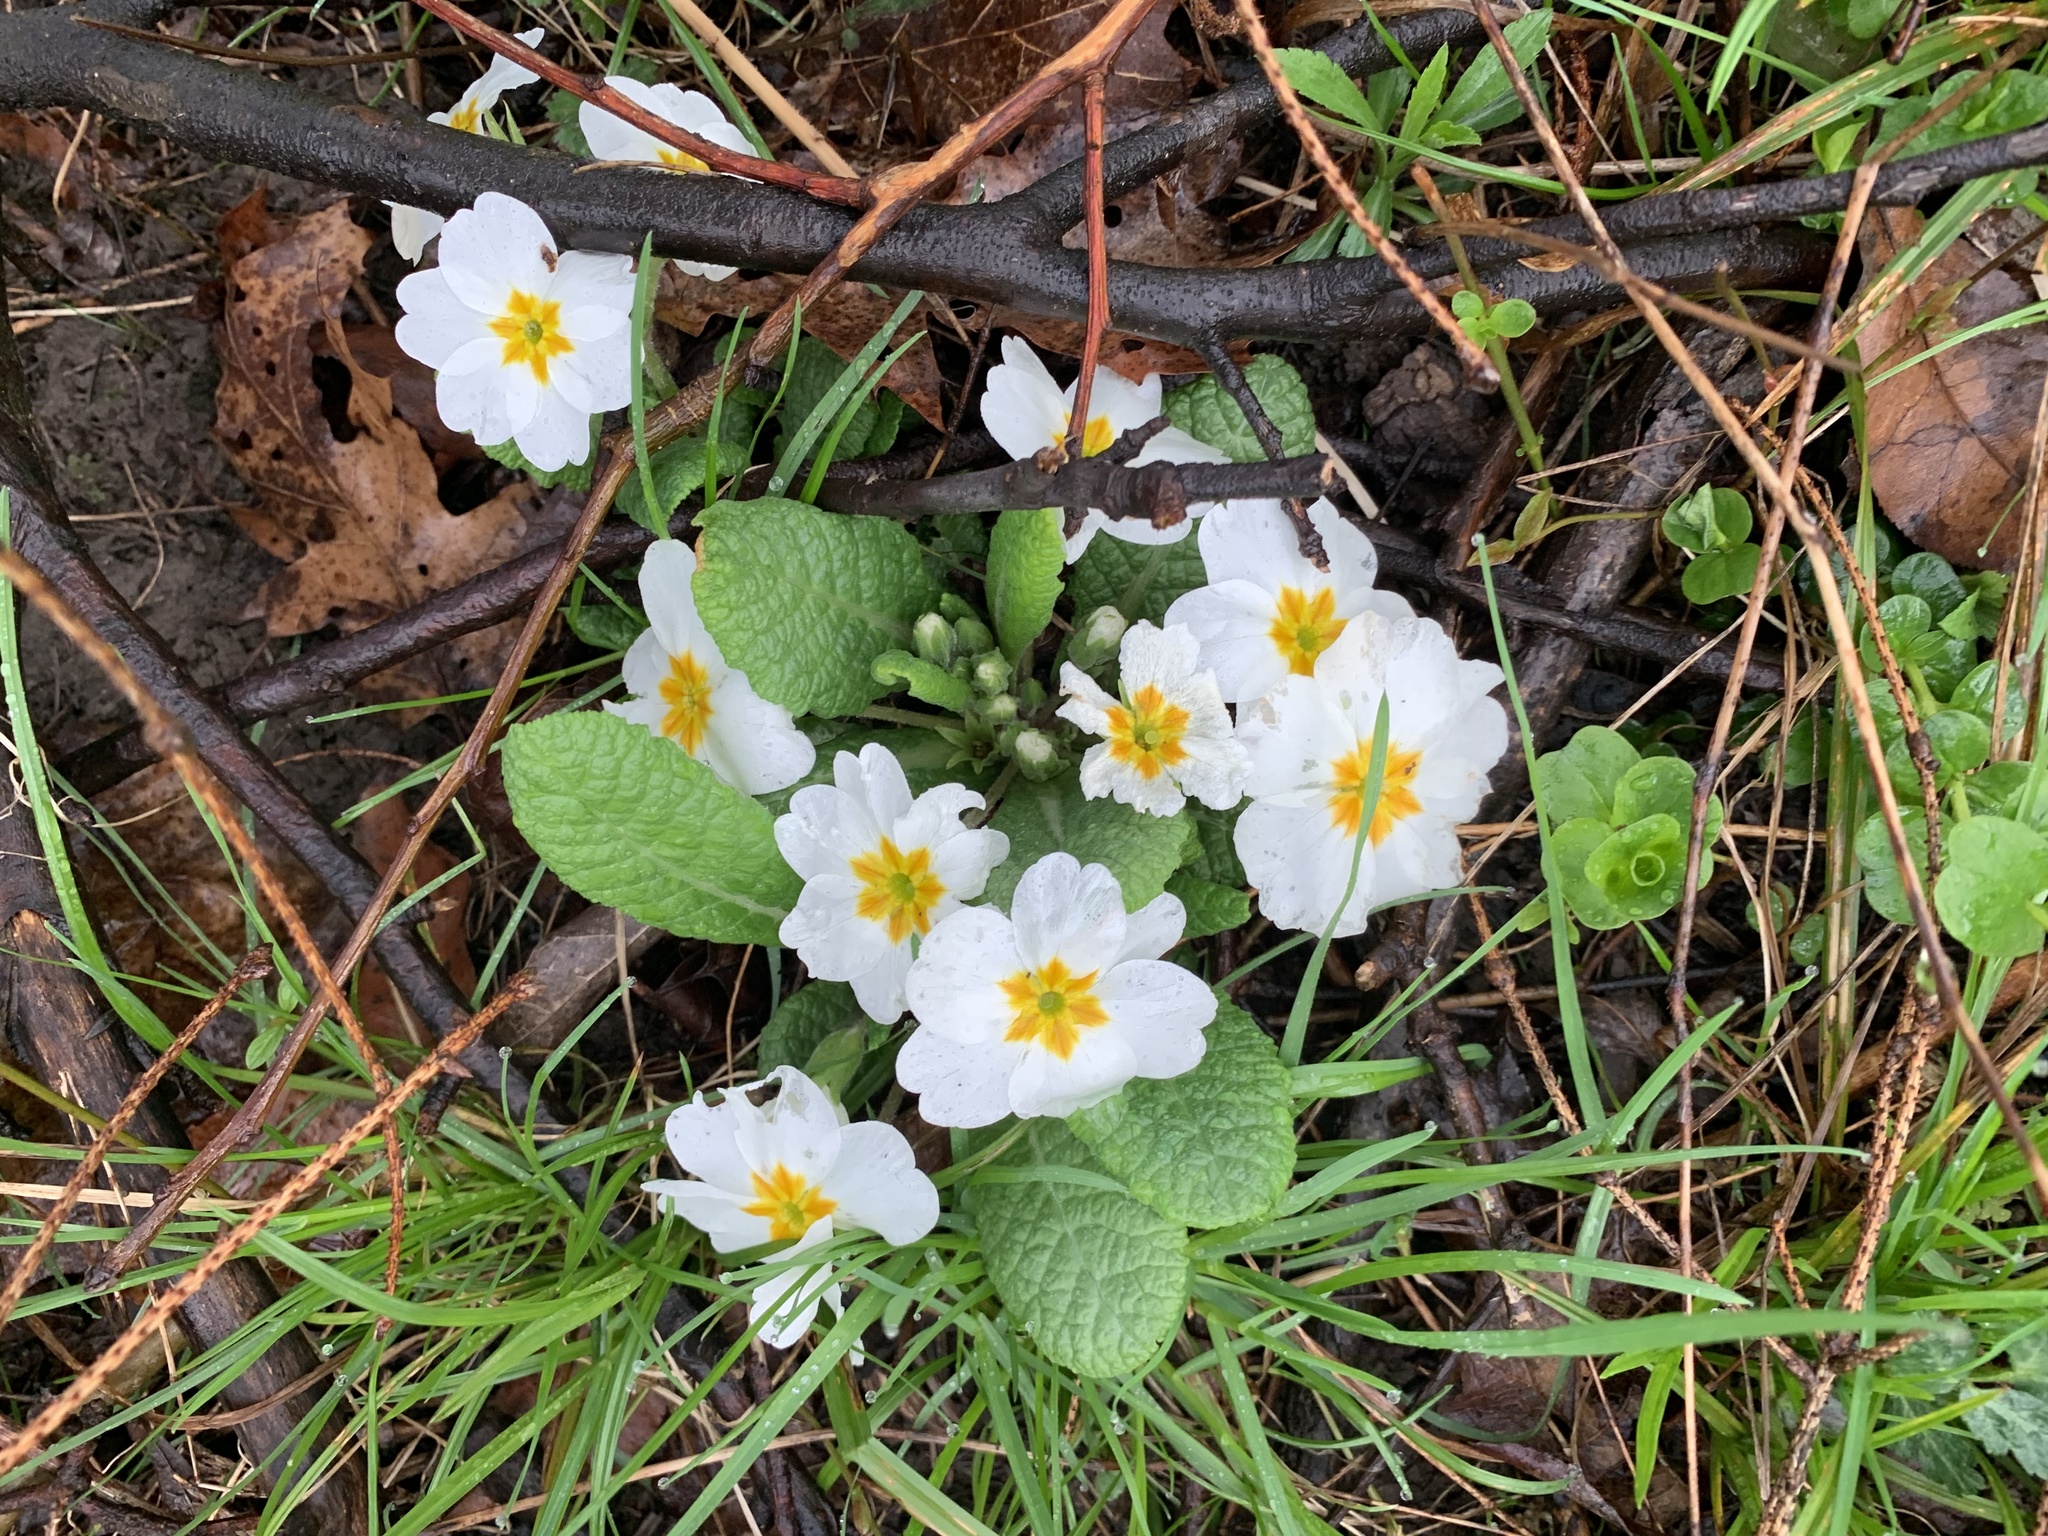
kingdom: Plantae
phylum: Tracheophyta
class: Magnoliopsida
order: Ericales
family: Primulaceae
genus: Primula
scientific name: Primula vulgaris
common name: Primrose
